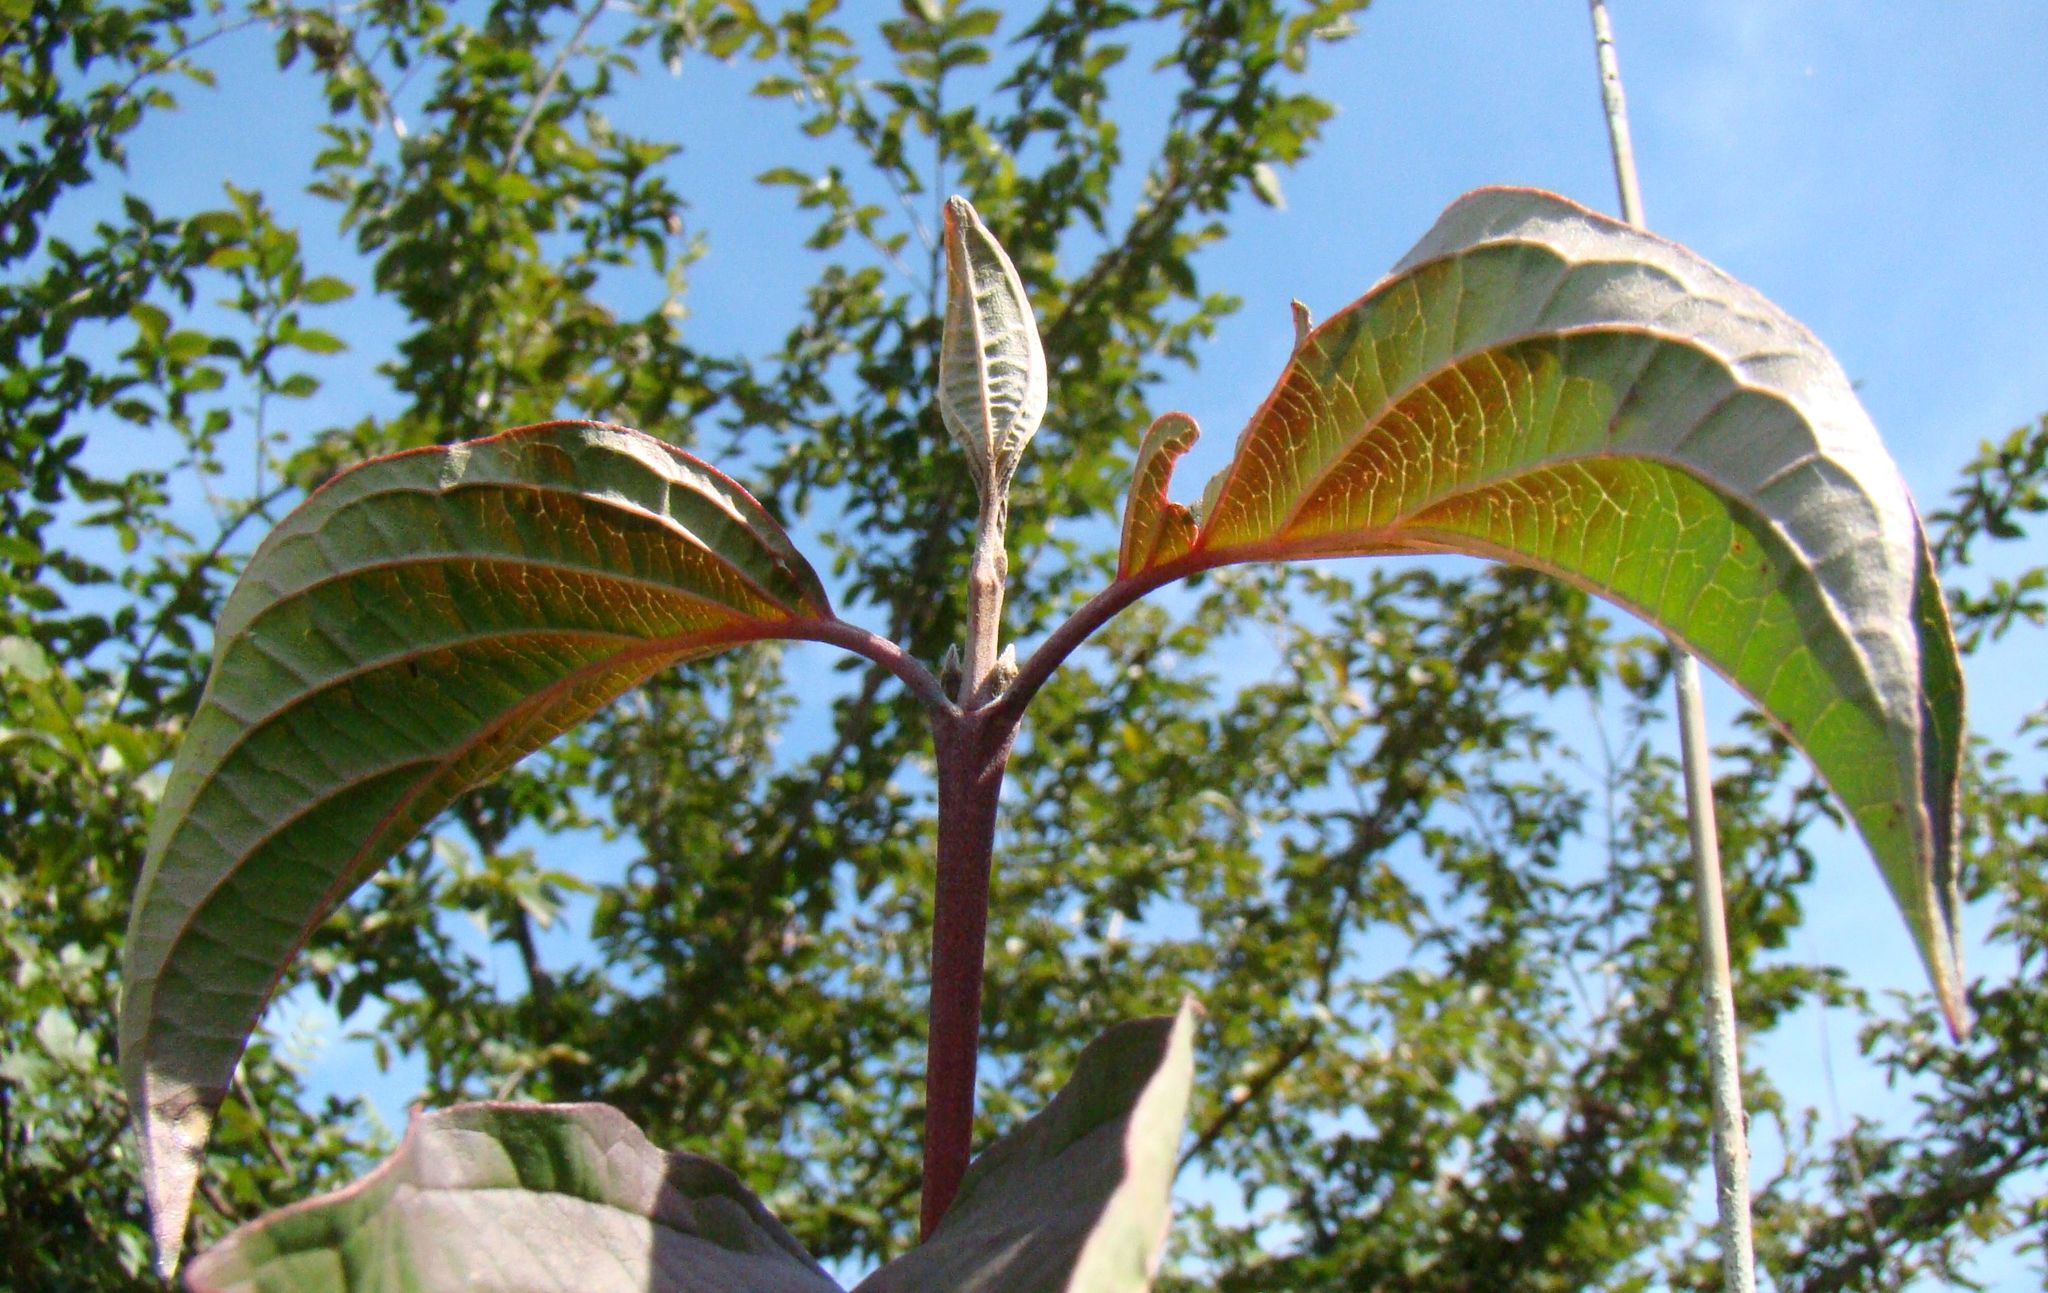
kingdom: Plantae
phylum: Tracheophyta
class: Magnoliopsida
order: Cornales
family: Cornaceae
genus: Cornus
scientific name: Cornus sanguinea
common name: Dogwood
